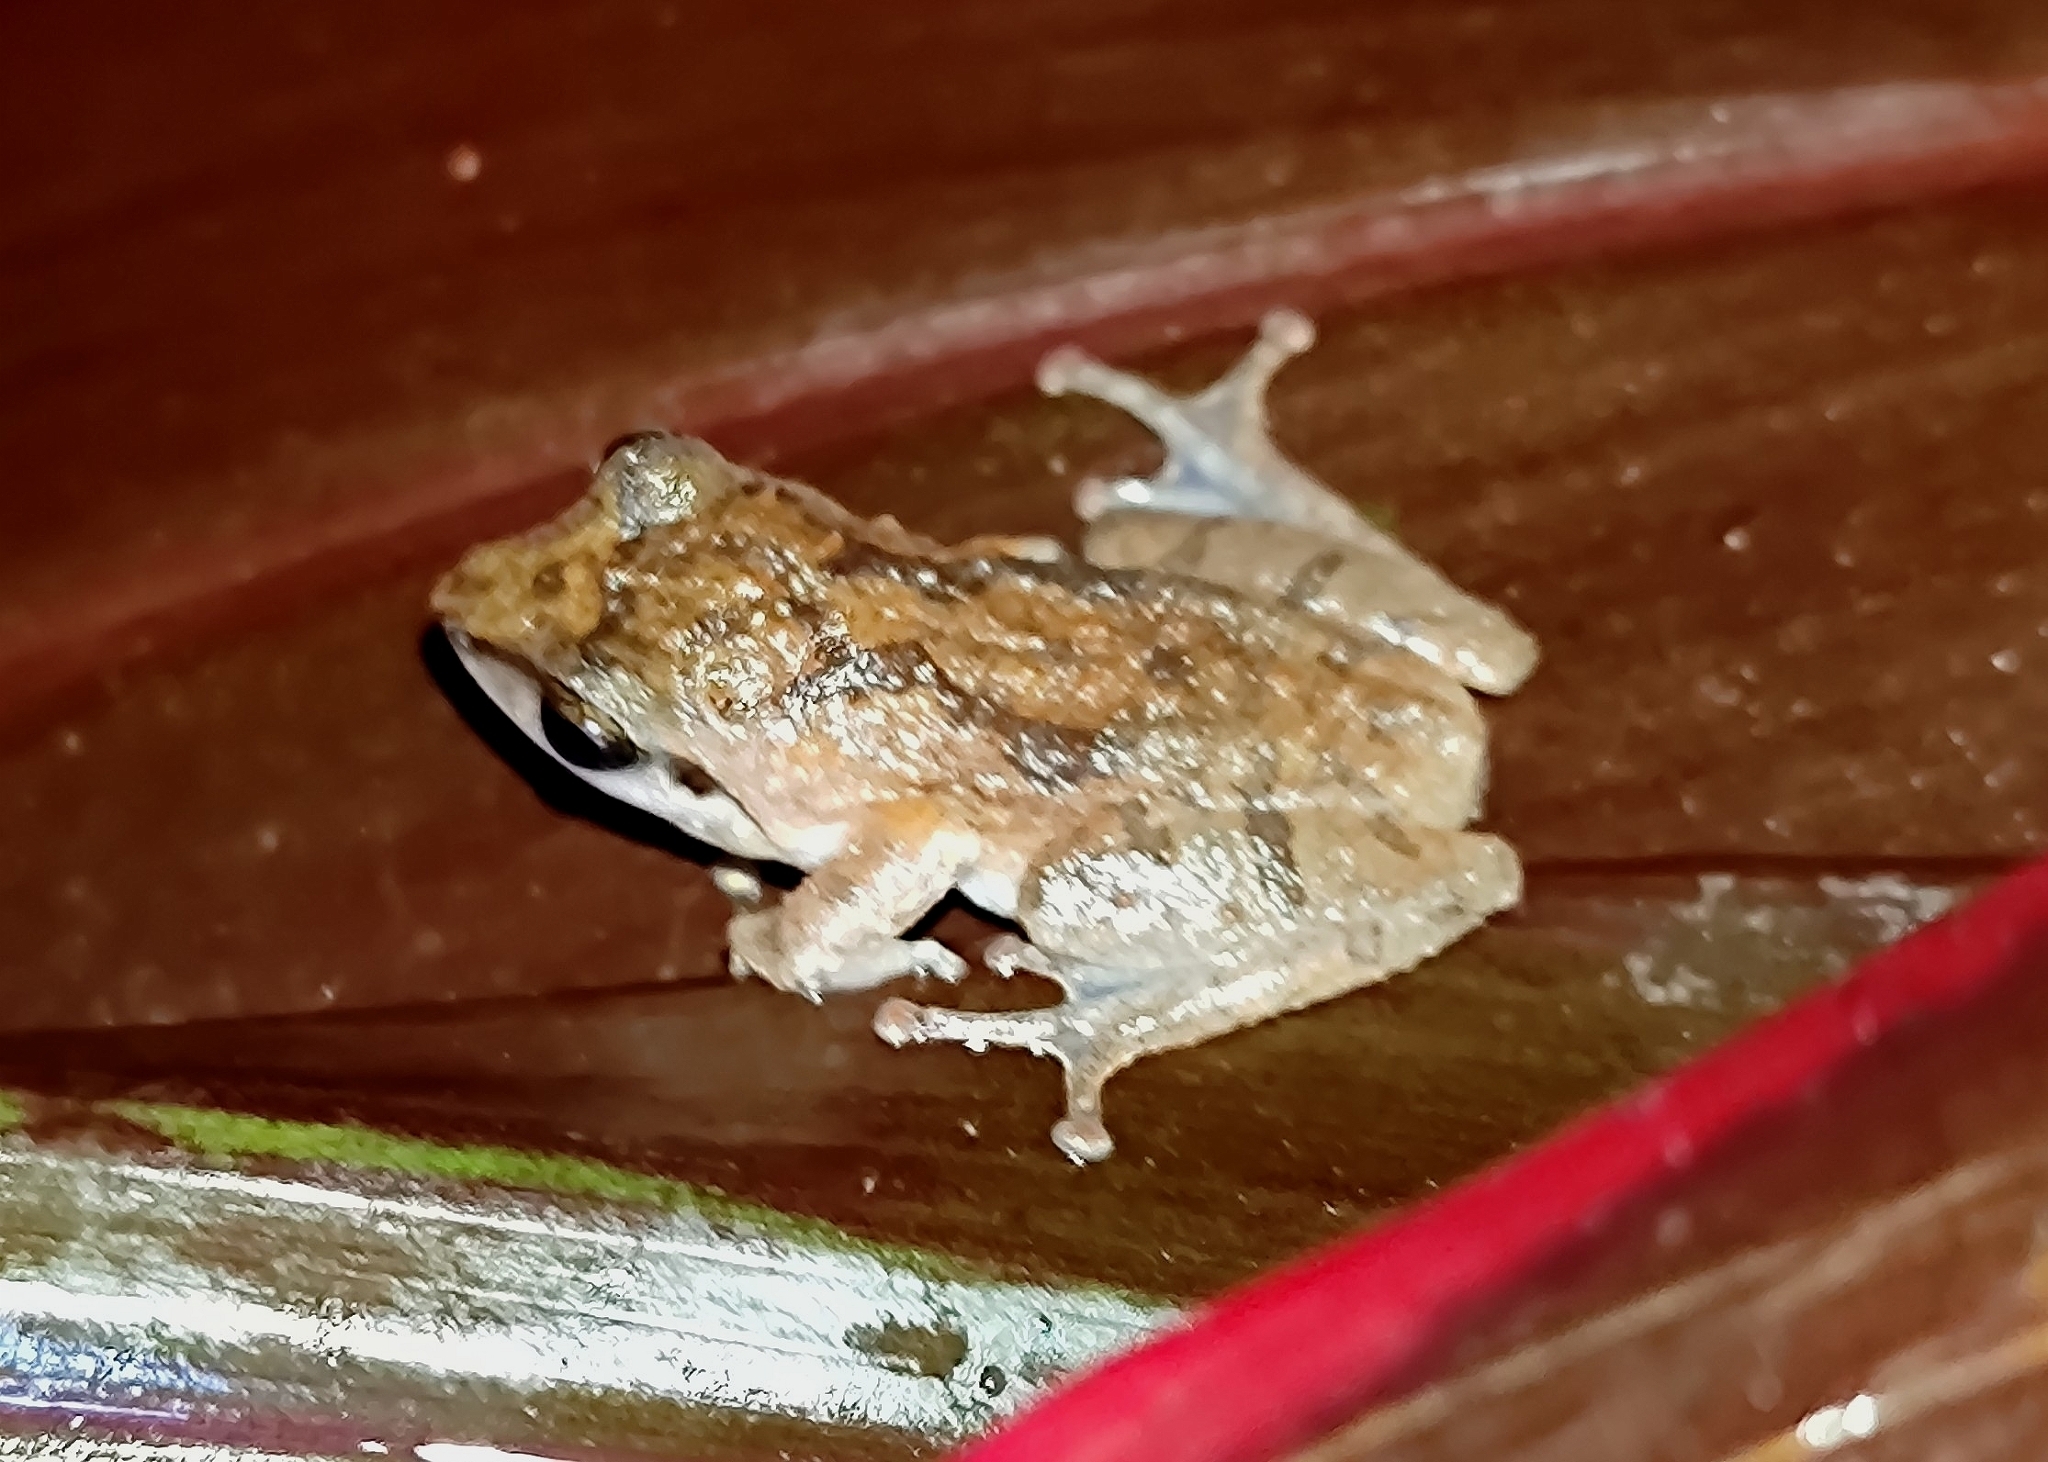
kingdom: Animalia
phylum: Chordata
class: Amphibia
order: Anura
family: Rhacophoridae
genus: Pseudophilautus
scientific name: Pseudophilautus wynaadensis
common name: Dark-eared bush frog
